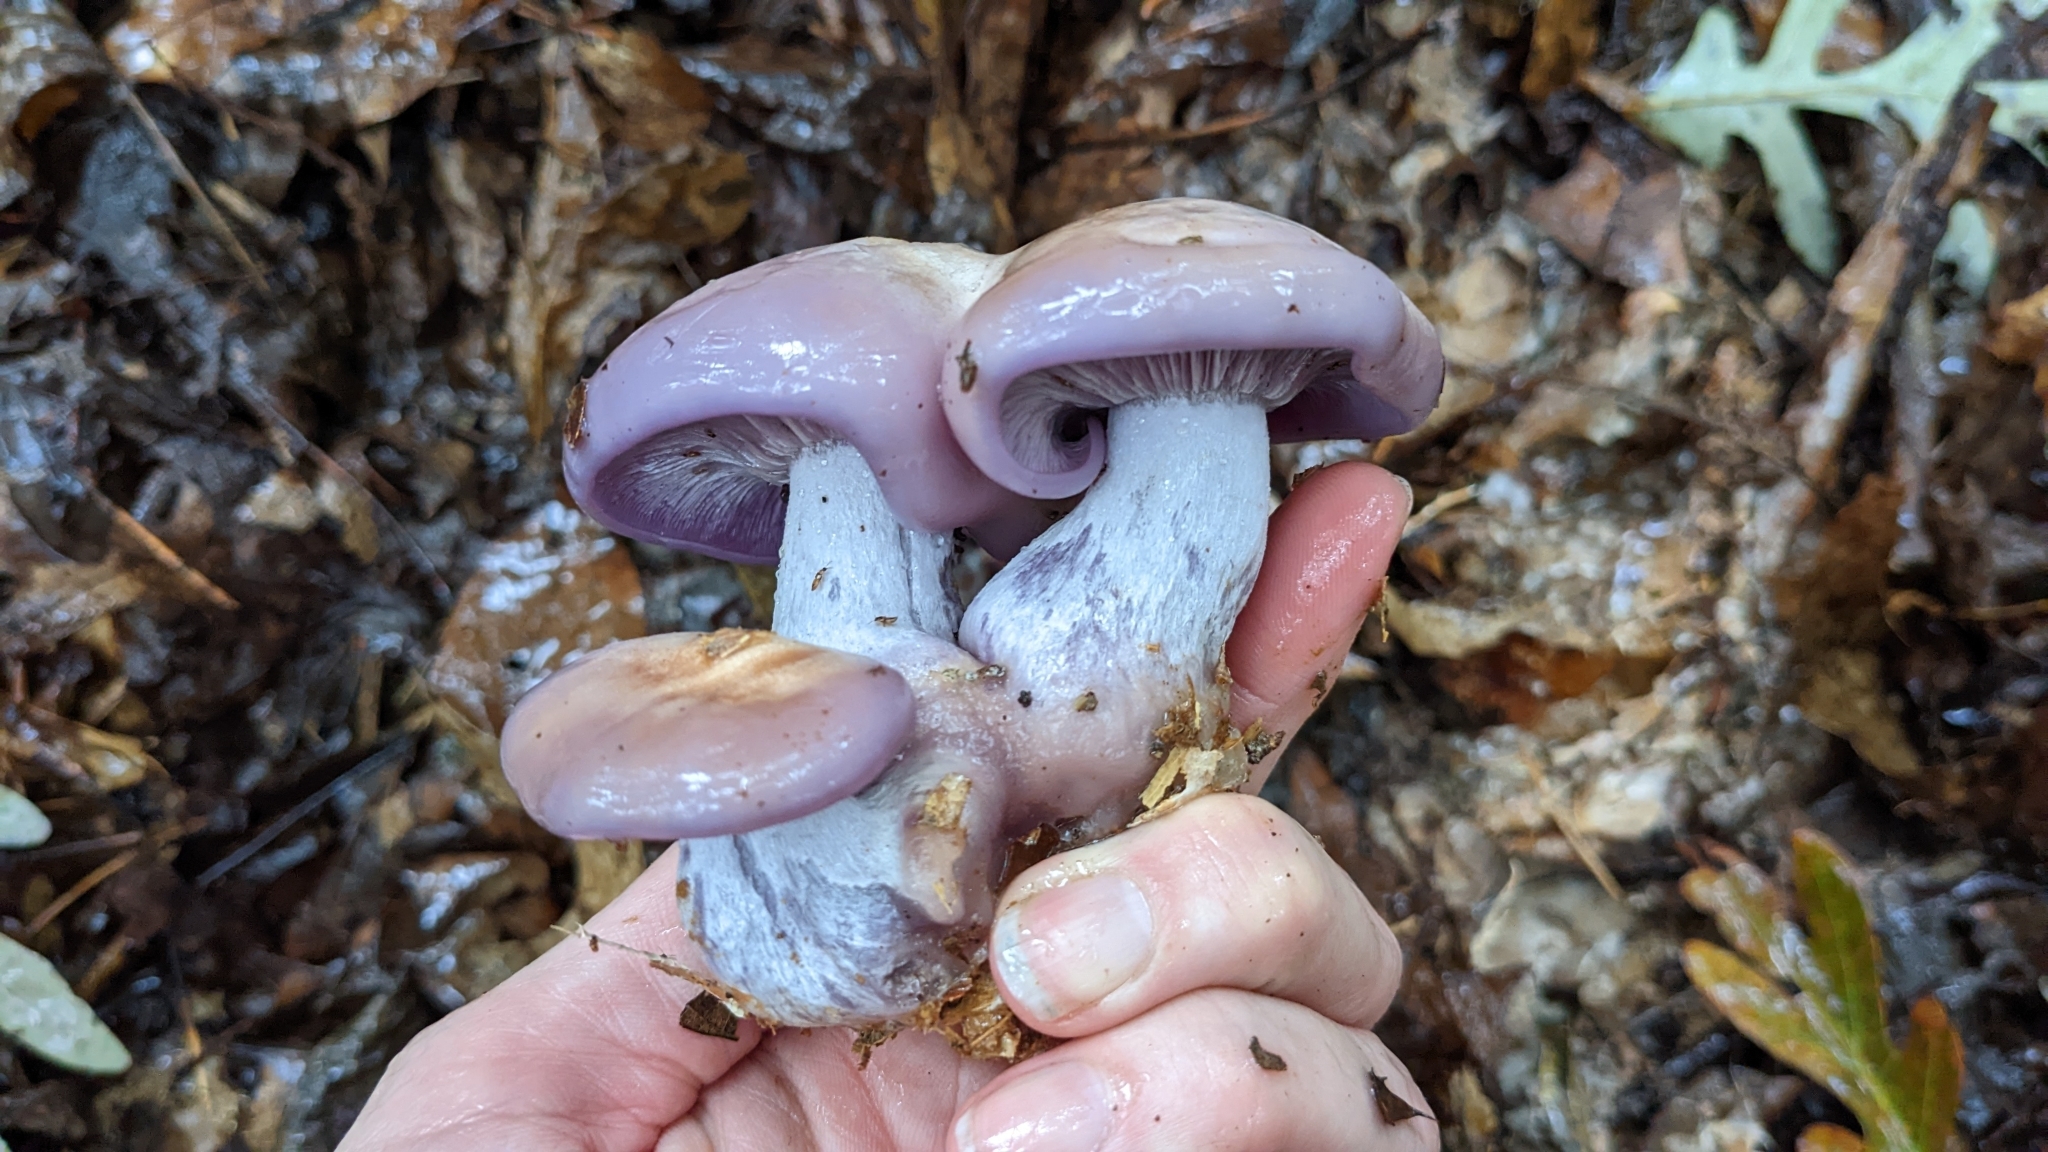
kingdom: Fungi
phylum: Basidiomycota
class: Agaricomycetes
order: Agaricales
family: Tricholomataceae
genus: Collybia
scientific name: Collybia
